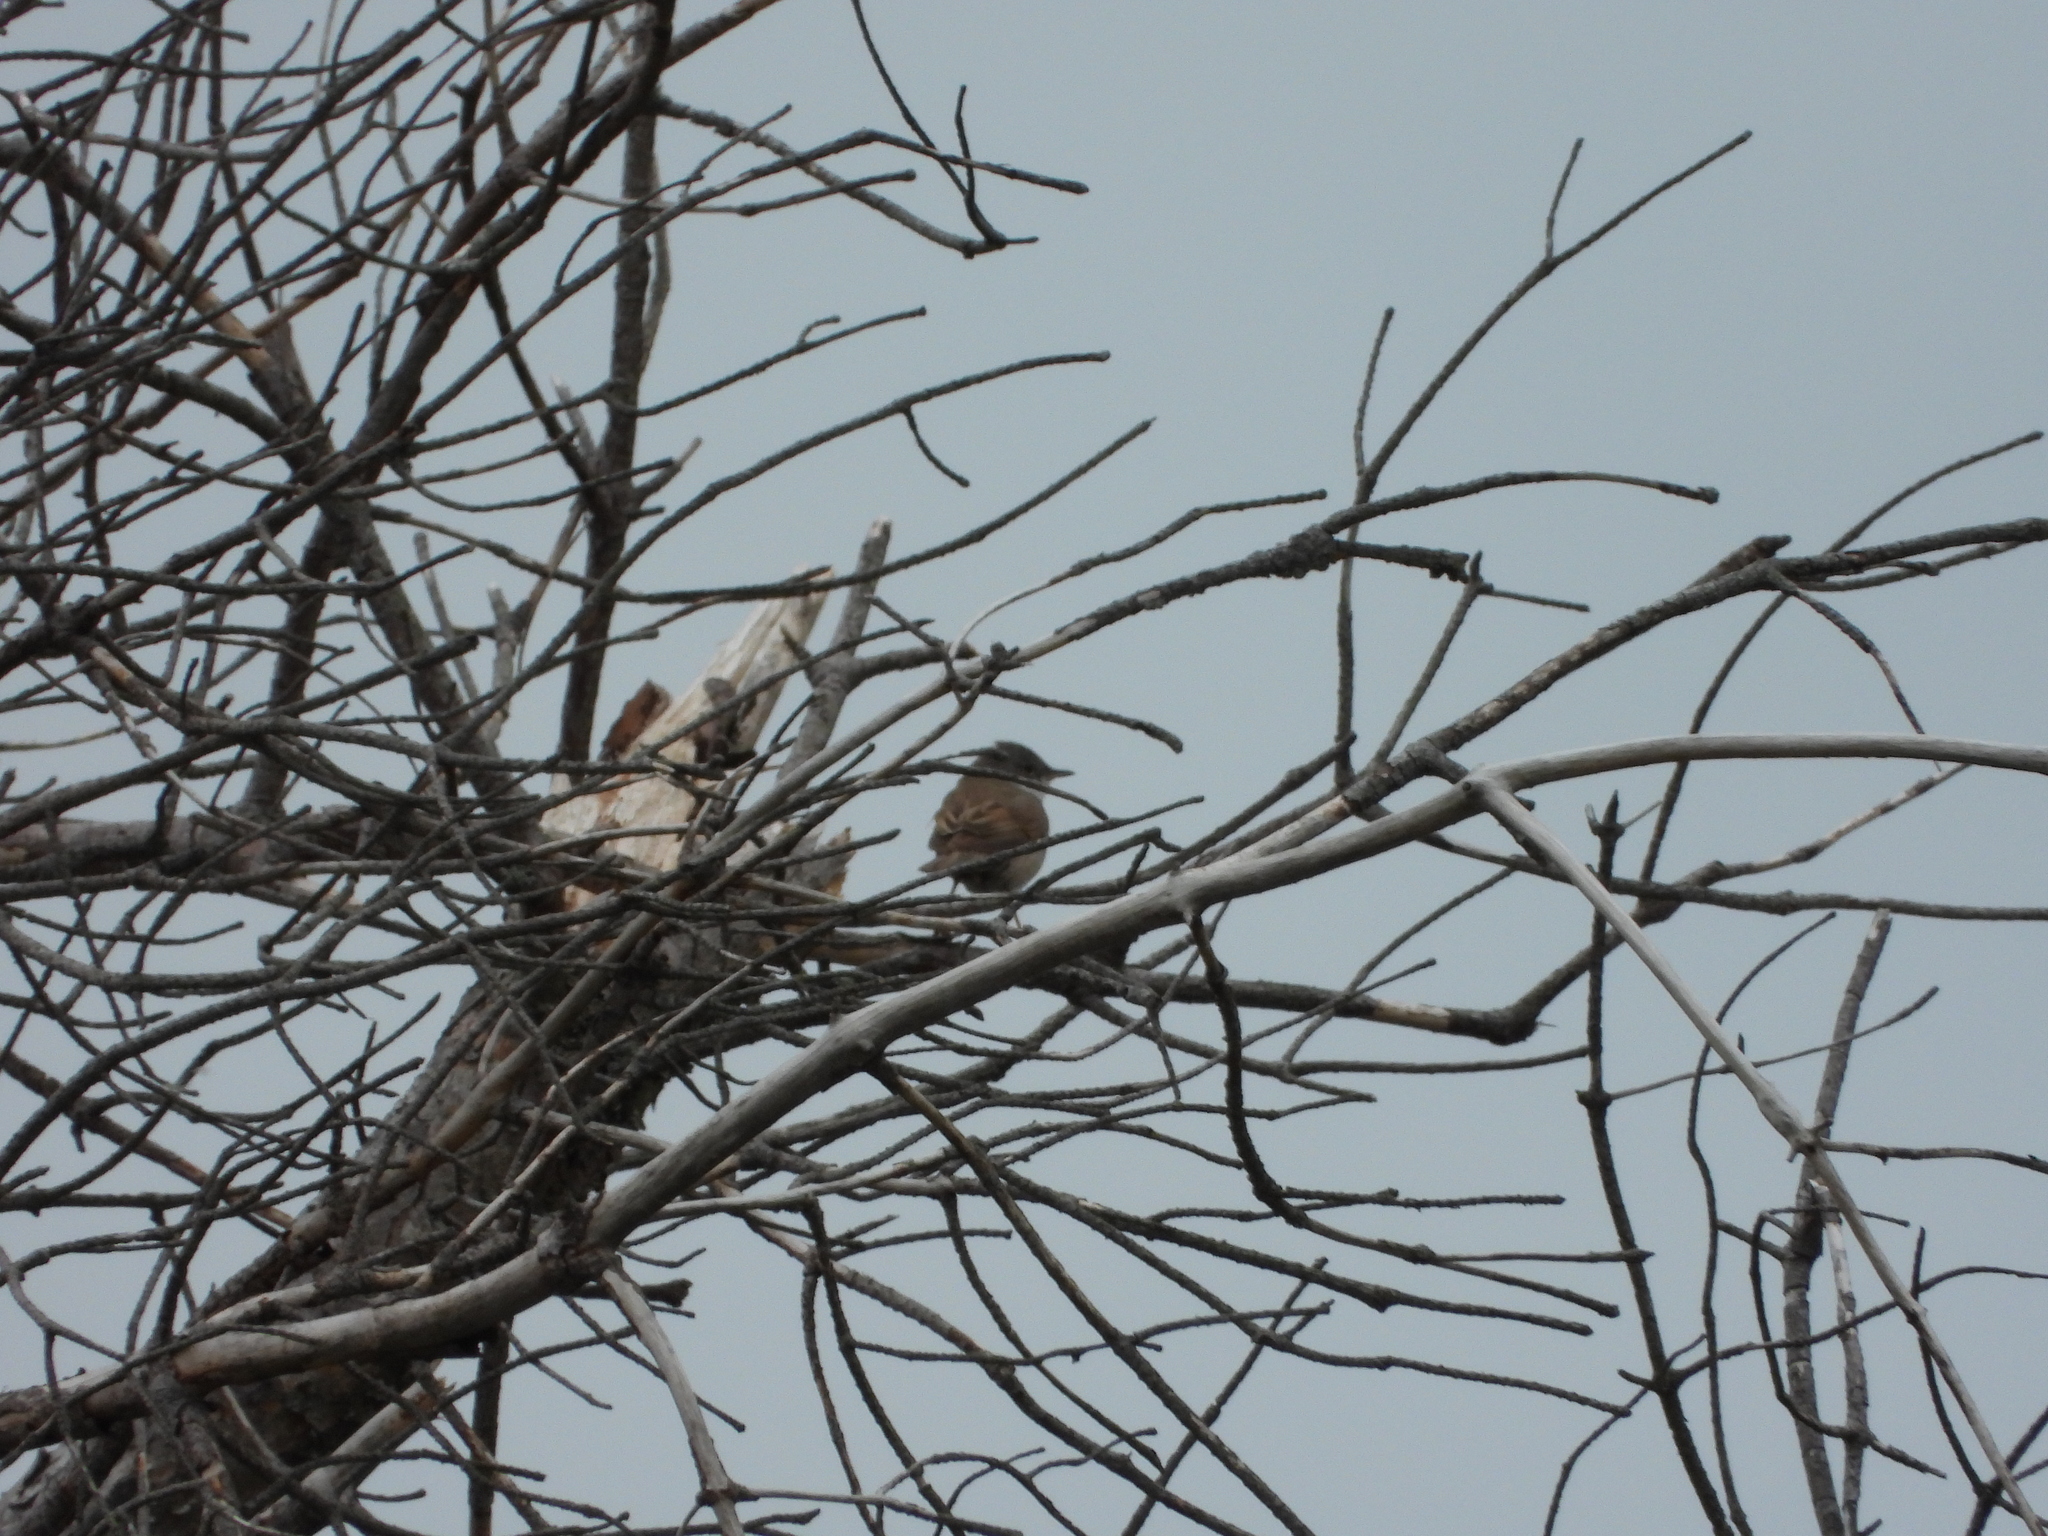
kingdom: Animalia
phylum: Chordata
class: Aves
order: Passeriformes
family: Sylviidae
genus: Sylvia
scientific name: Sylvia communis
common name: Common whitethroat
